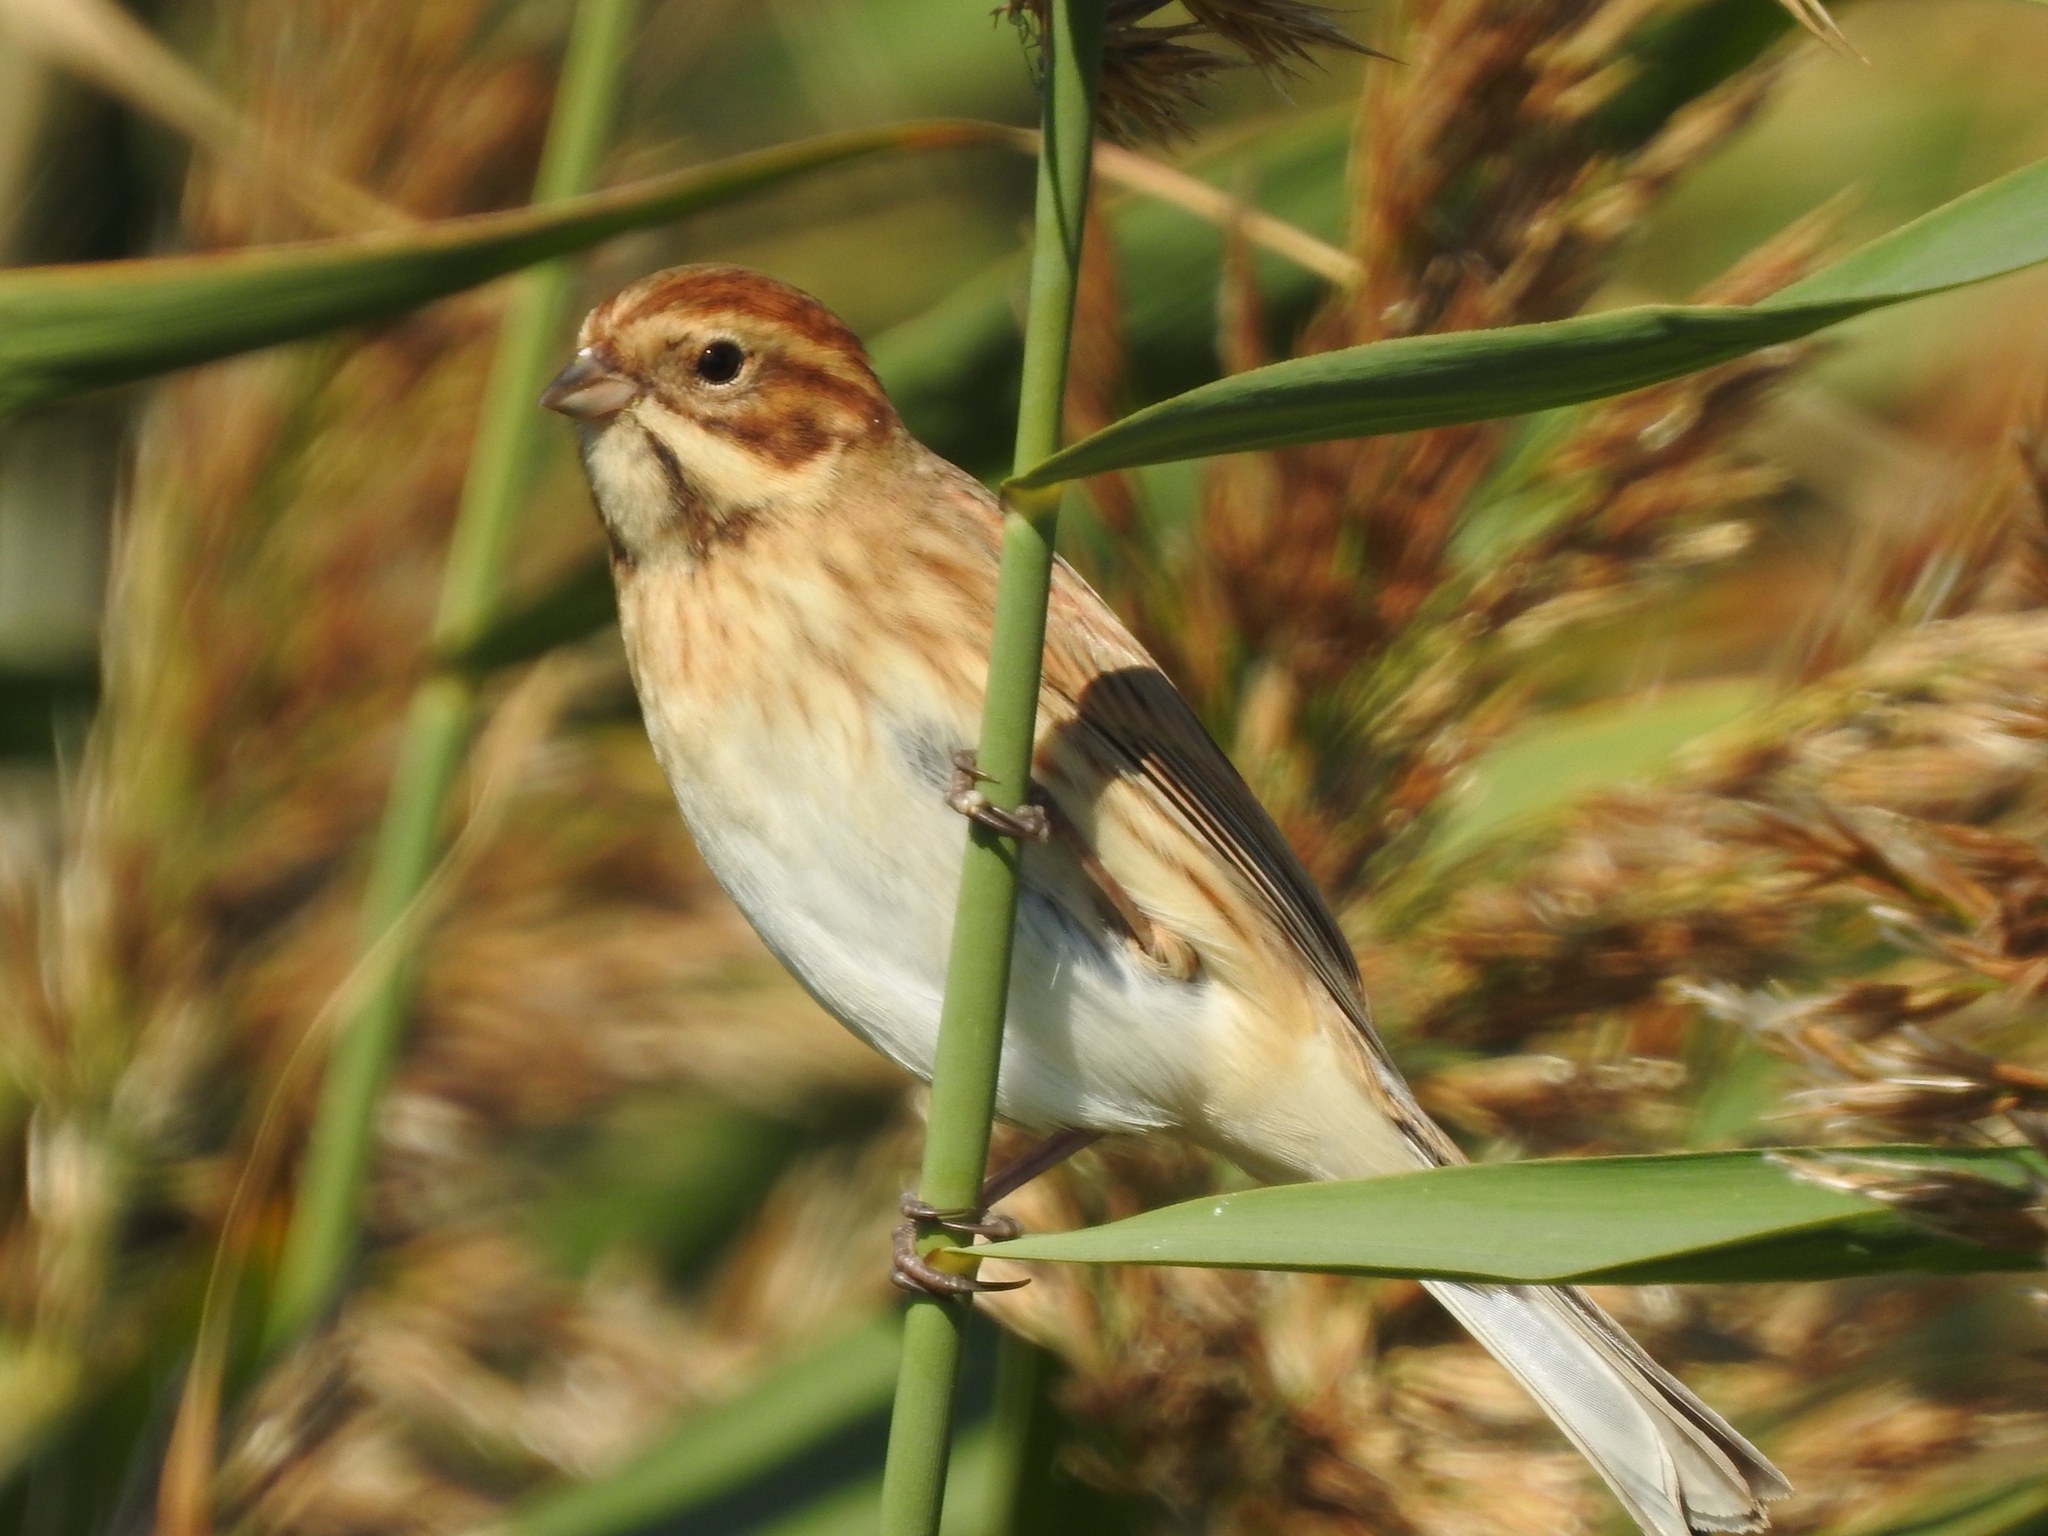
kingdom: Animalia
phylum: Chordata
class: Aves
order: Passeriformes
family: Emberizidae
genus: Emberiza
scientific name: Emberiza schoeniclus
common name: Reed bunting
